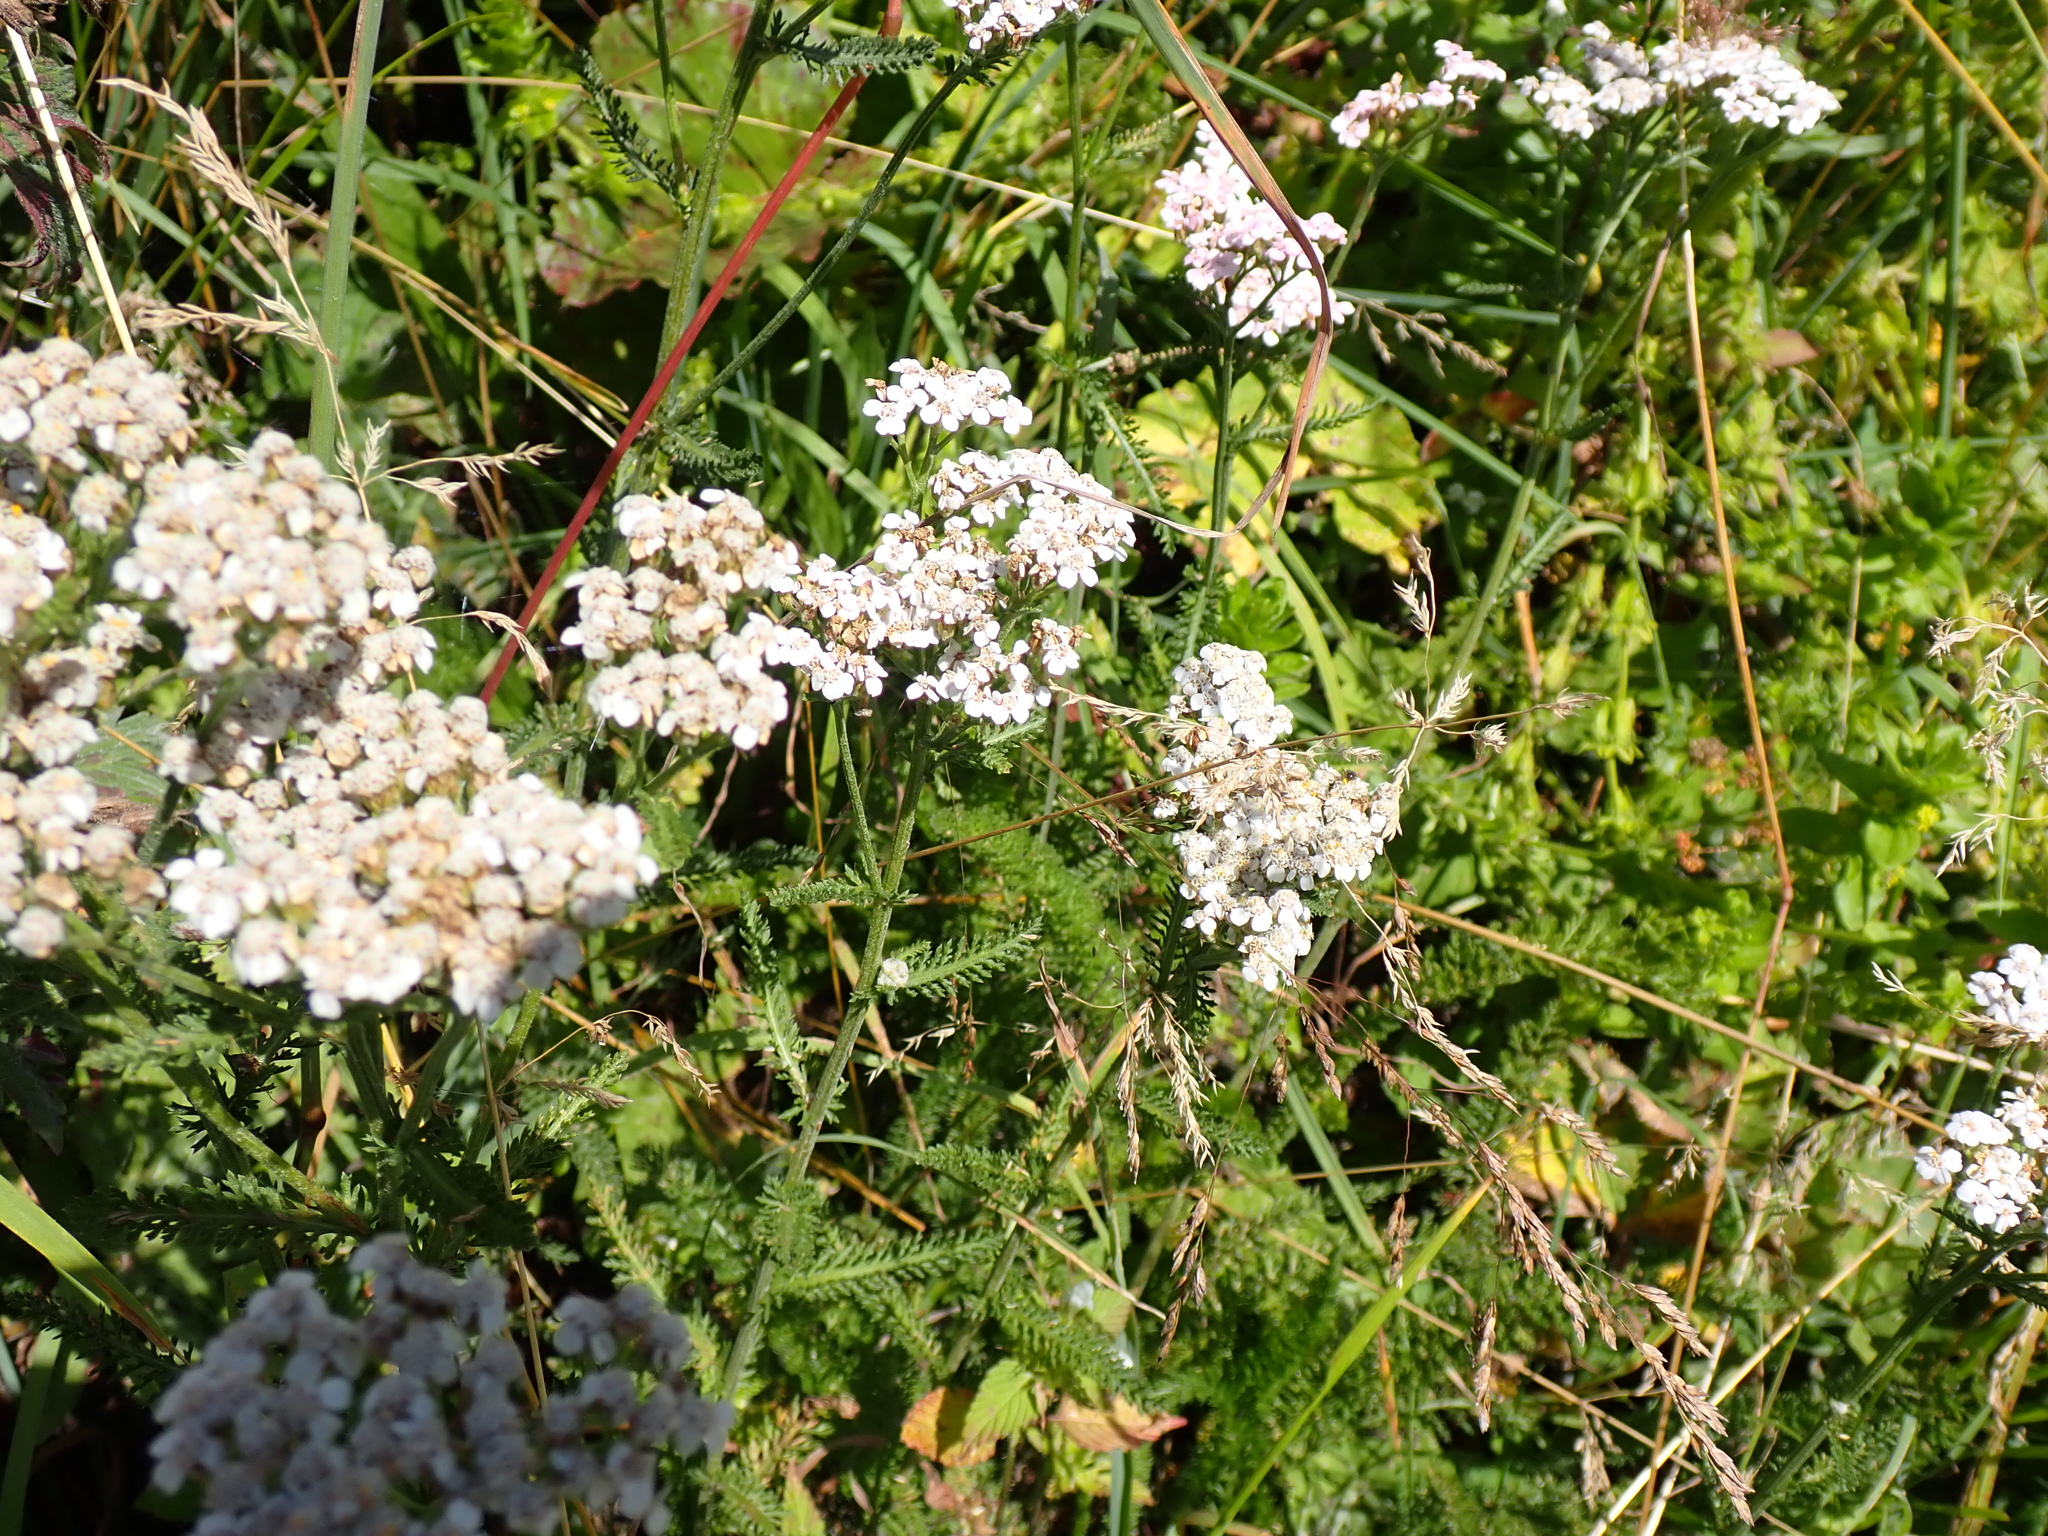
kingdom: Plantae
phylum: Tracheophyta
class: Magnoliopsida
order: Asterales
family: Asteraceae
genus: Achillea
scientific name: Achillea millefolium
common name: Yarrow
